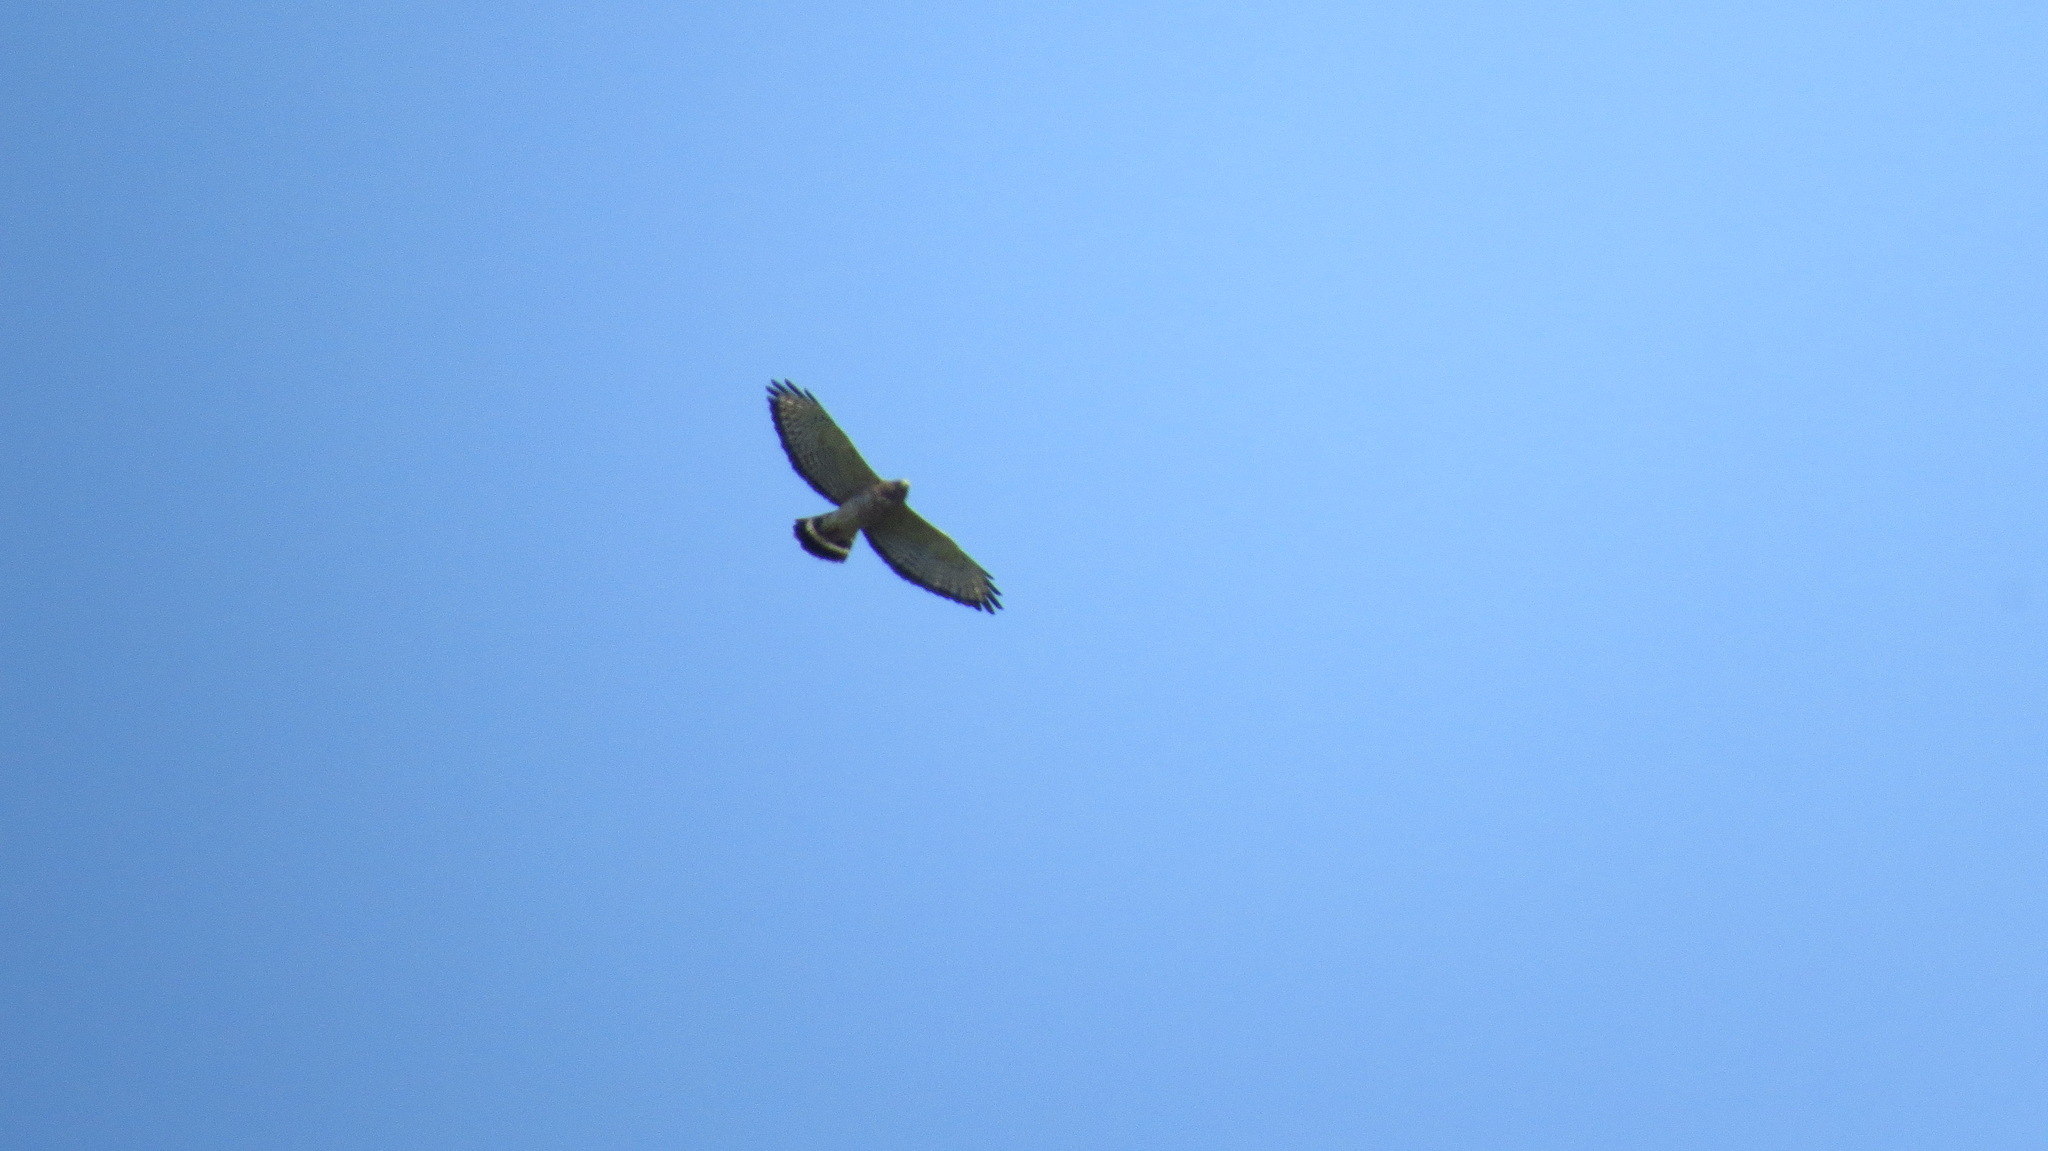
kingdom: Animalia
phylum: Chordata
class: Aves
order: Accipitriformes
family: Accipitridae
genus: Buteo
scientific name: Buteo platypterus
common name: Broad-winged hawk
